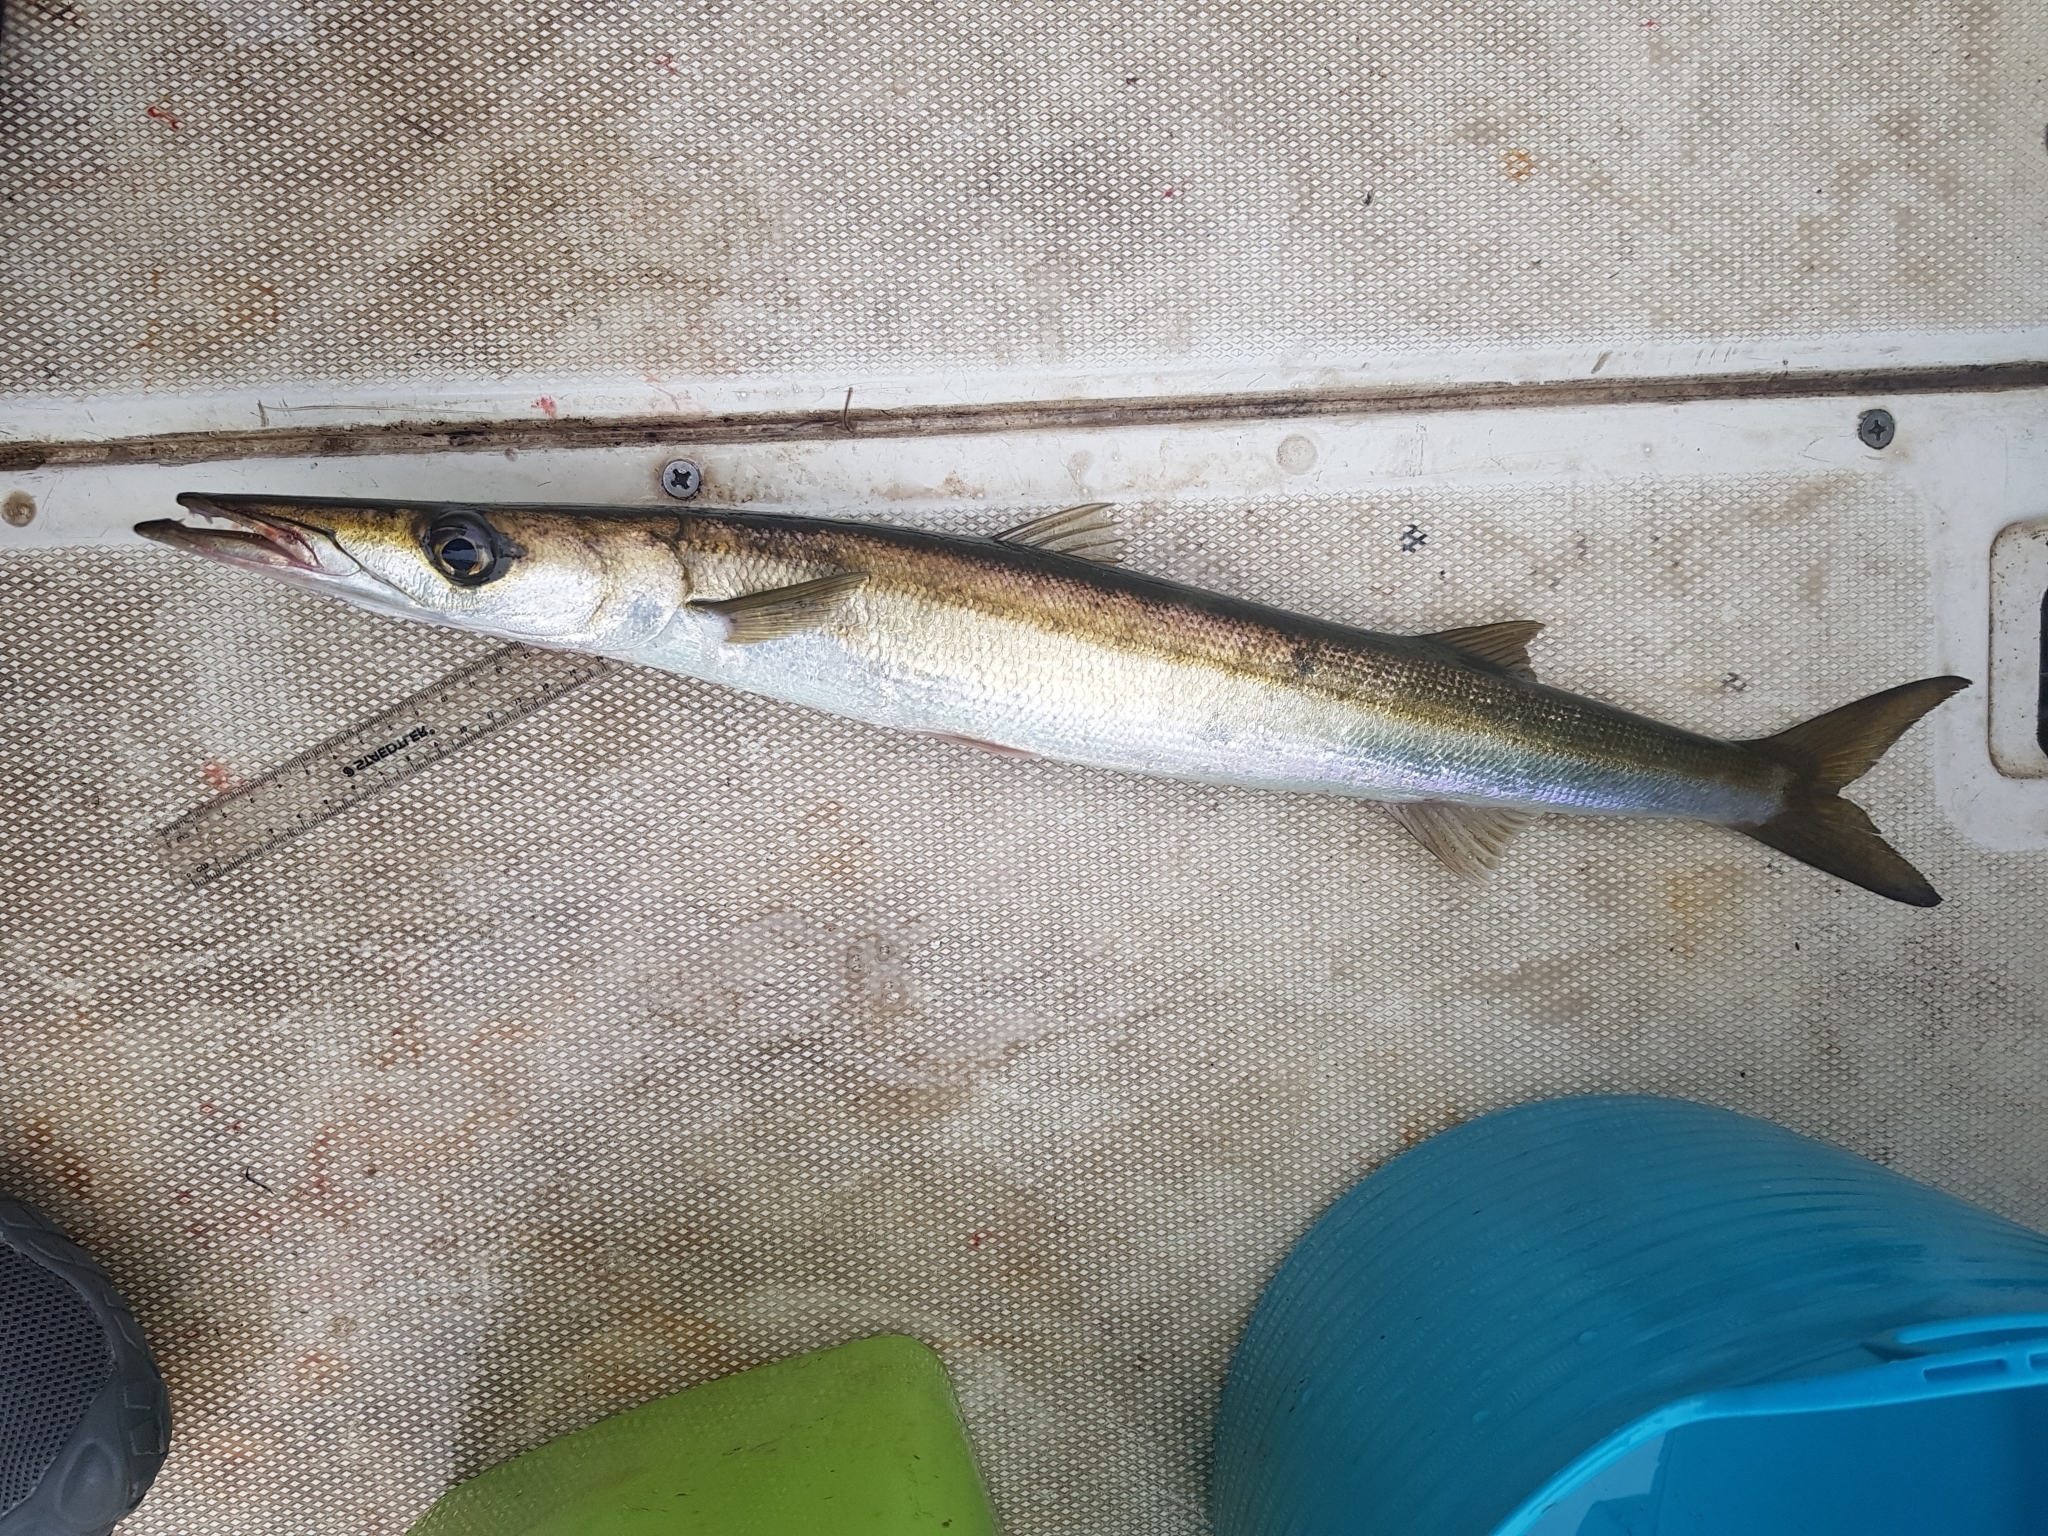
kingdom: Animalia
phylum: Chordata
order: Perciformes
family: Sphyraenidae
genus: Sphyraena
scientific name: Sphyraena novaehollandiae
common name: Arrow barracuda
